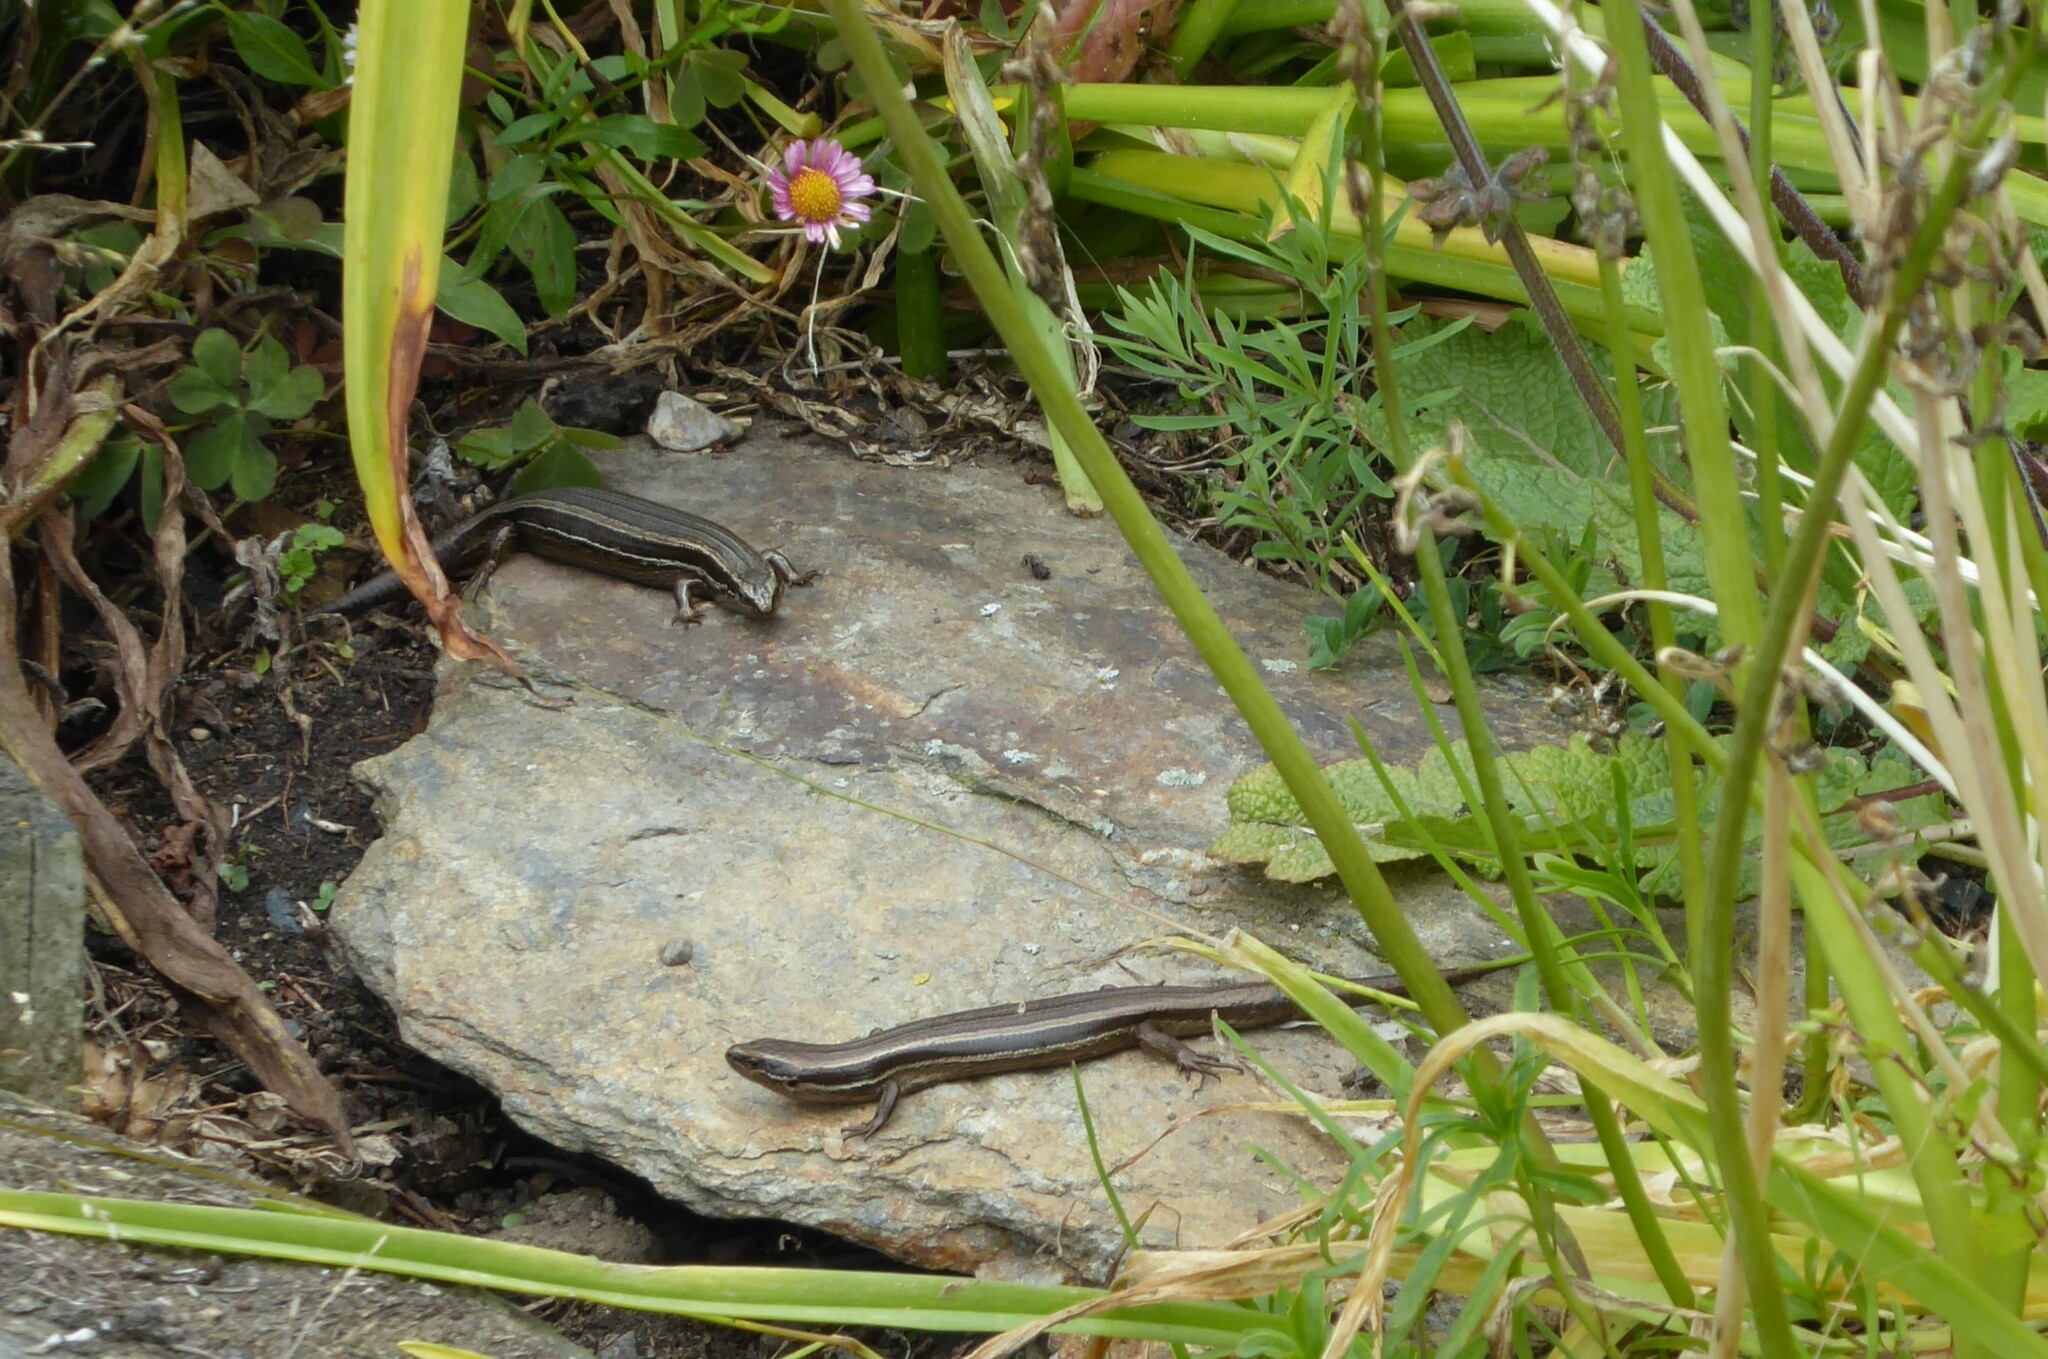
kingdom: Animalia
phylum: Chordata
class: Squamata
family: Scincidae
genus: Oligosoma
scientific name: Oligosoma polychroma
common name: Common new zealand skink
